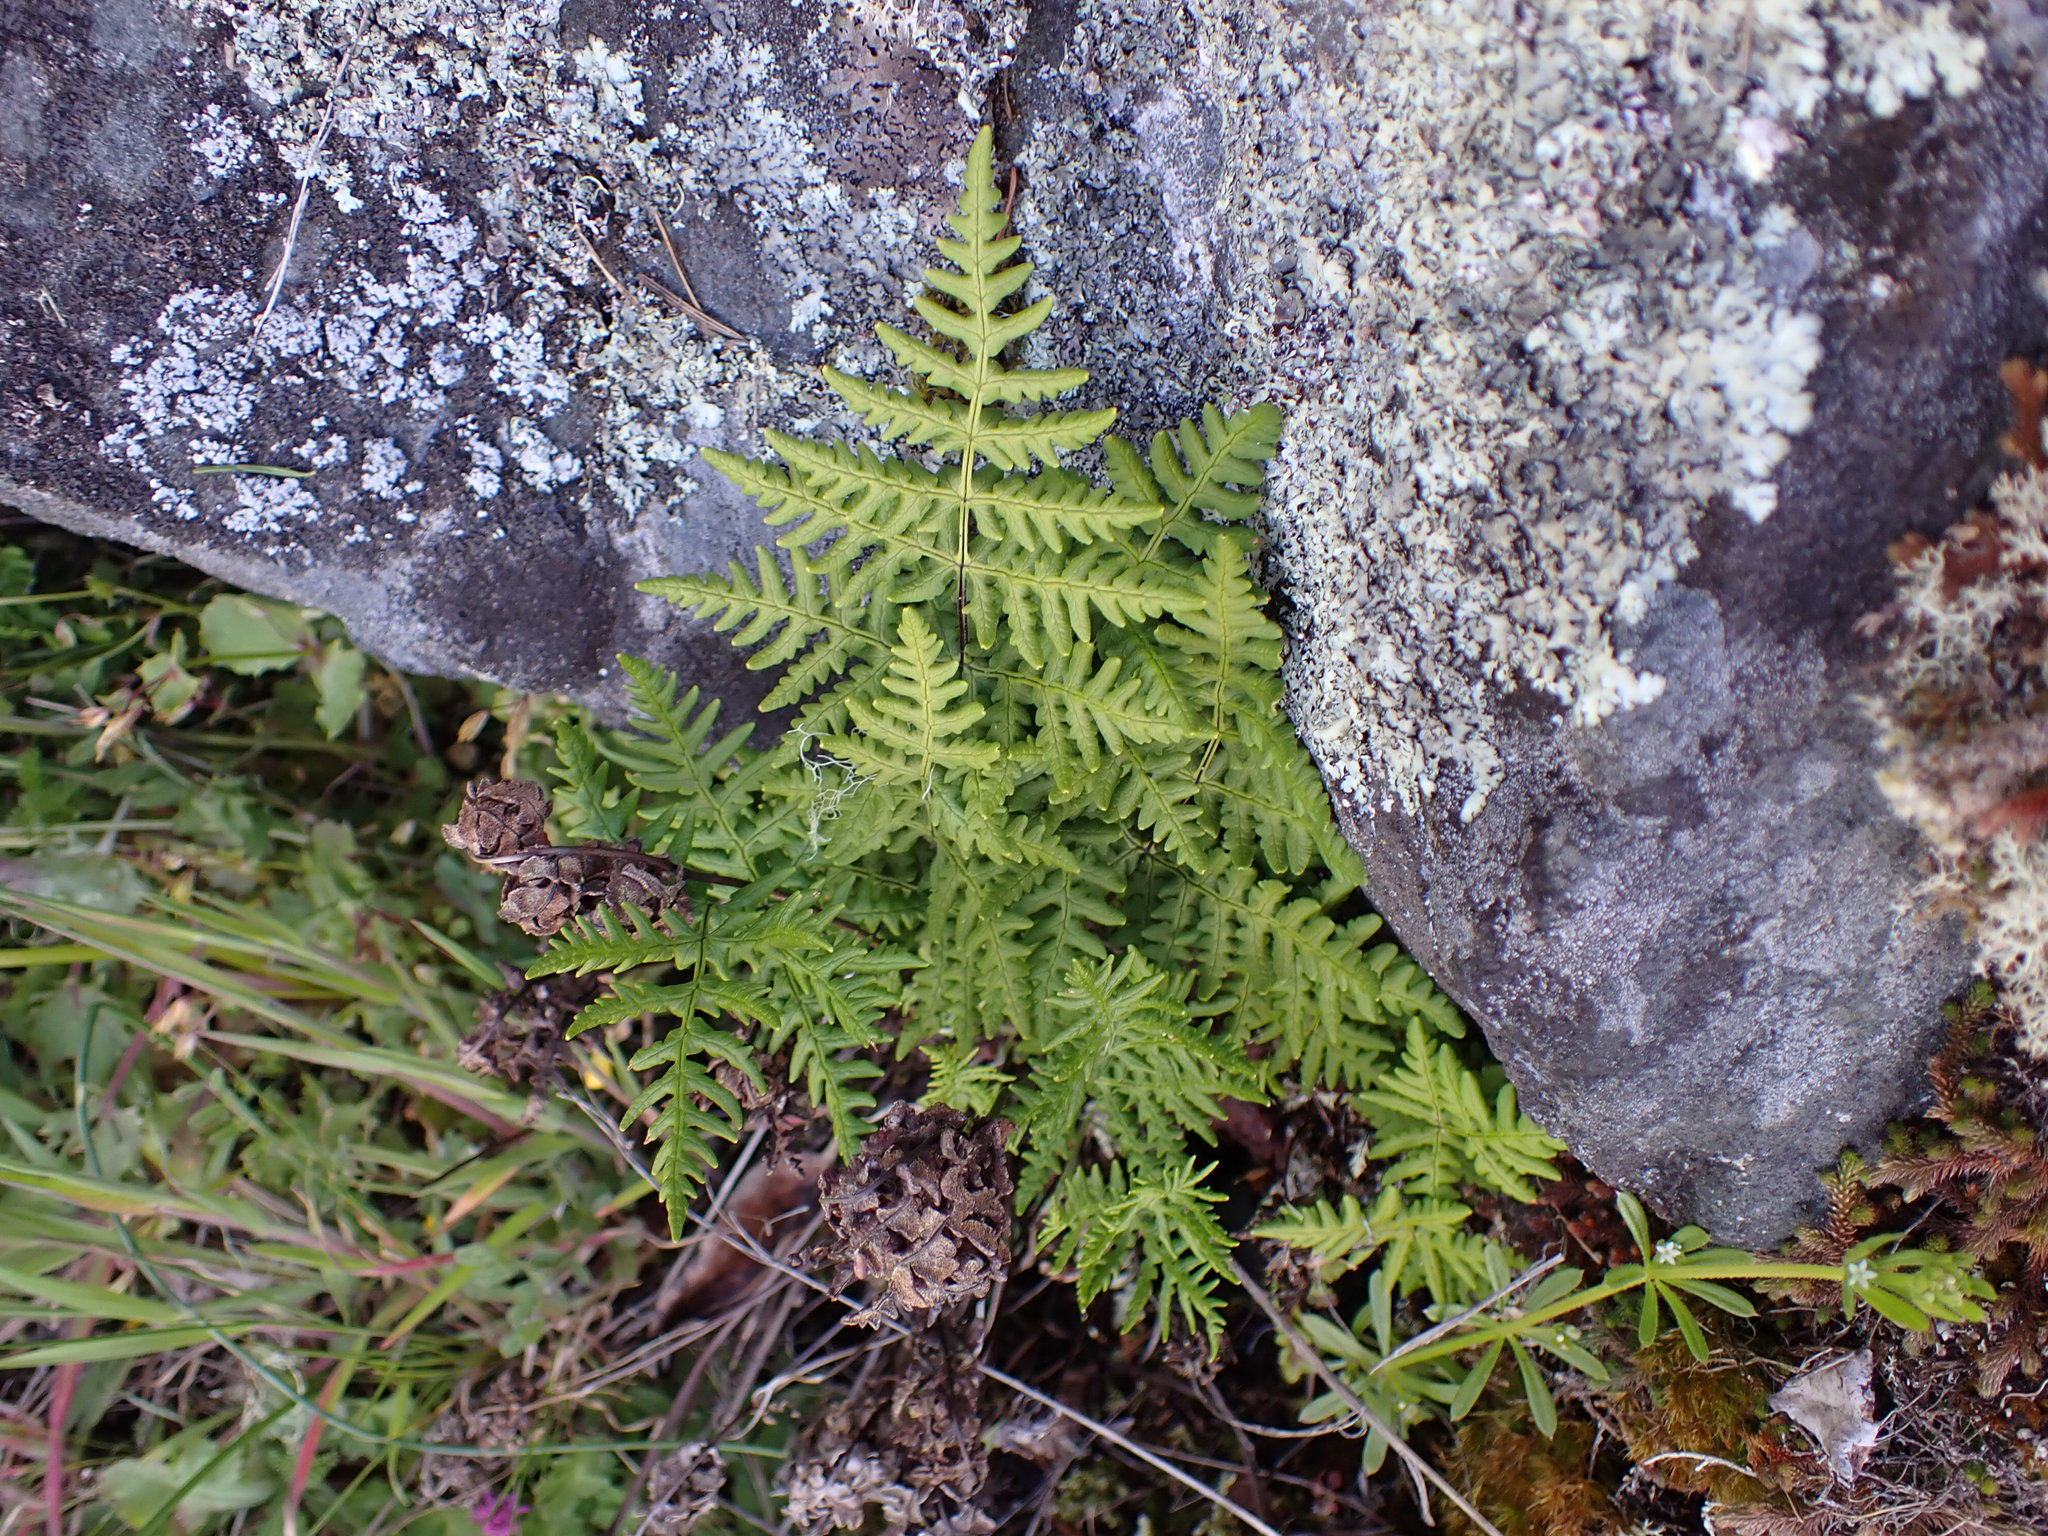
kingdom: Plantae
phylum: Tracheophyta
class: Polypodiopsida
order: Polypodiales
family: Pteridaceae
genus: Pentagramma
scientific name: Pentagramma triangularis
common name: Gold fern
